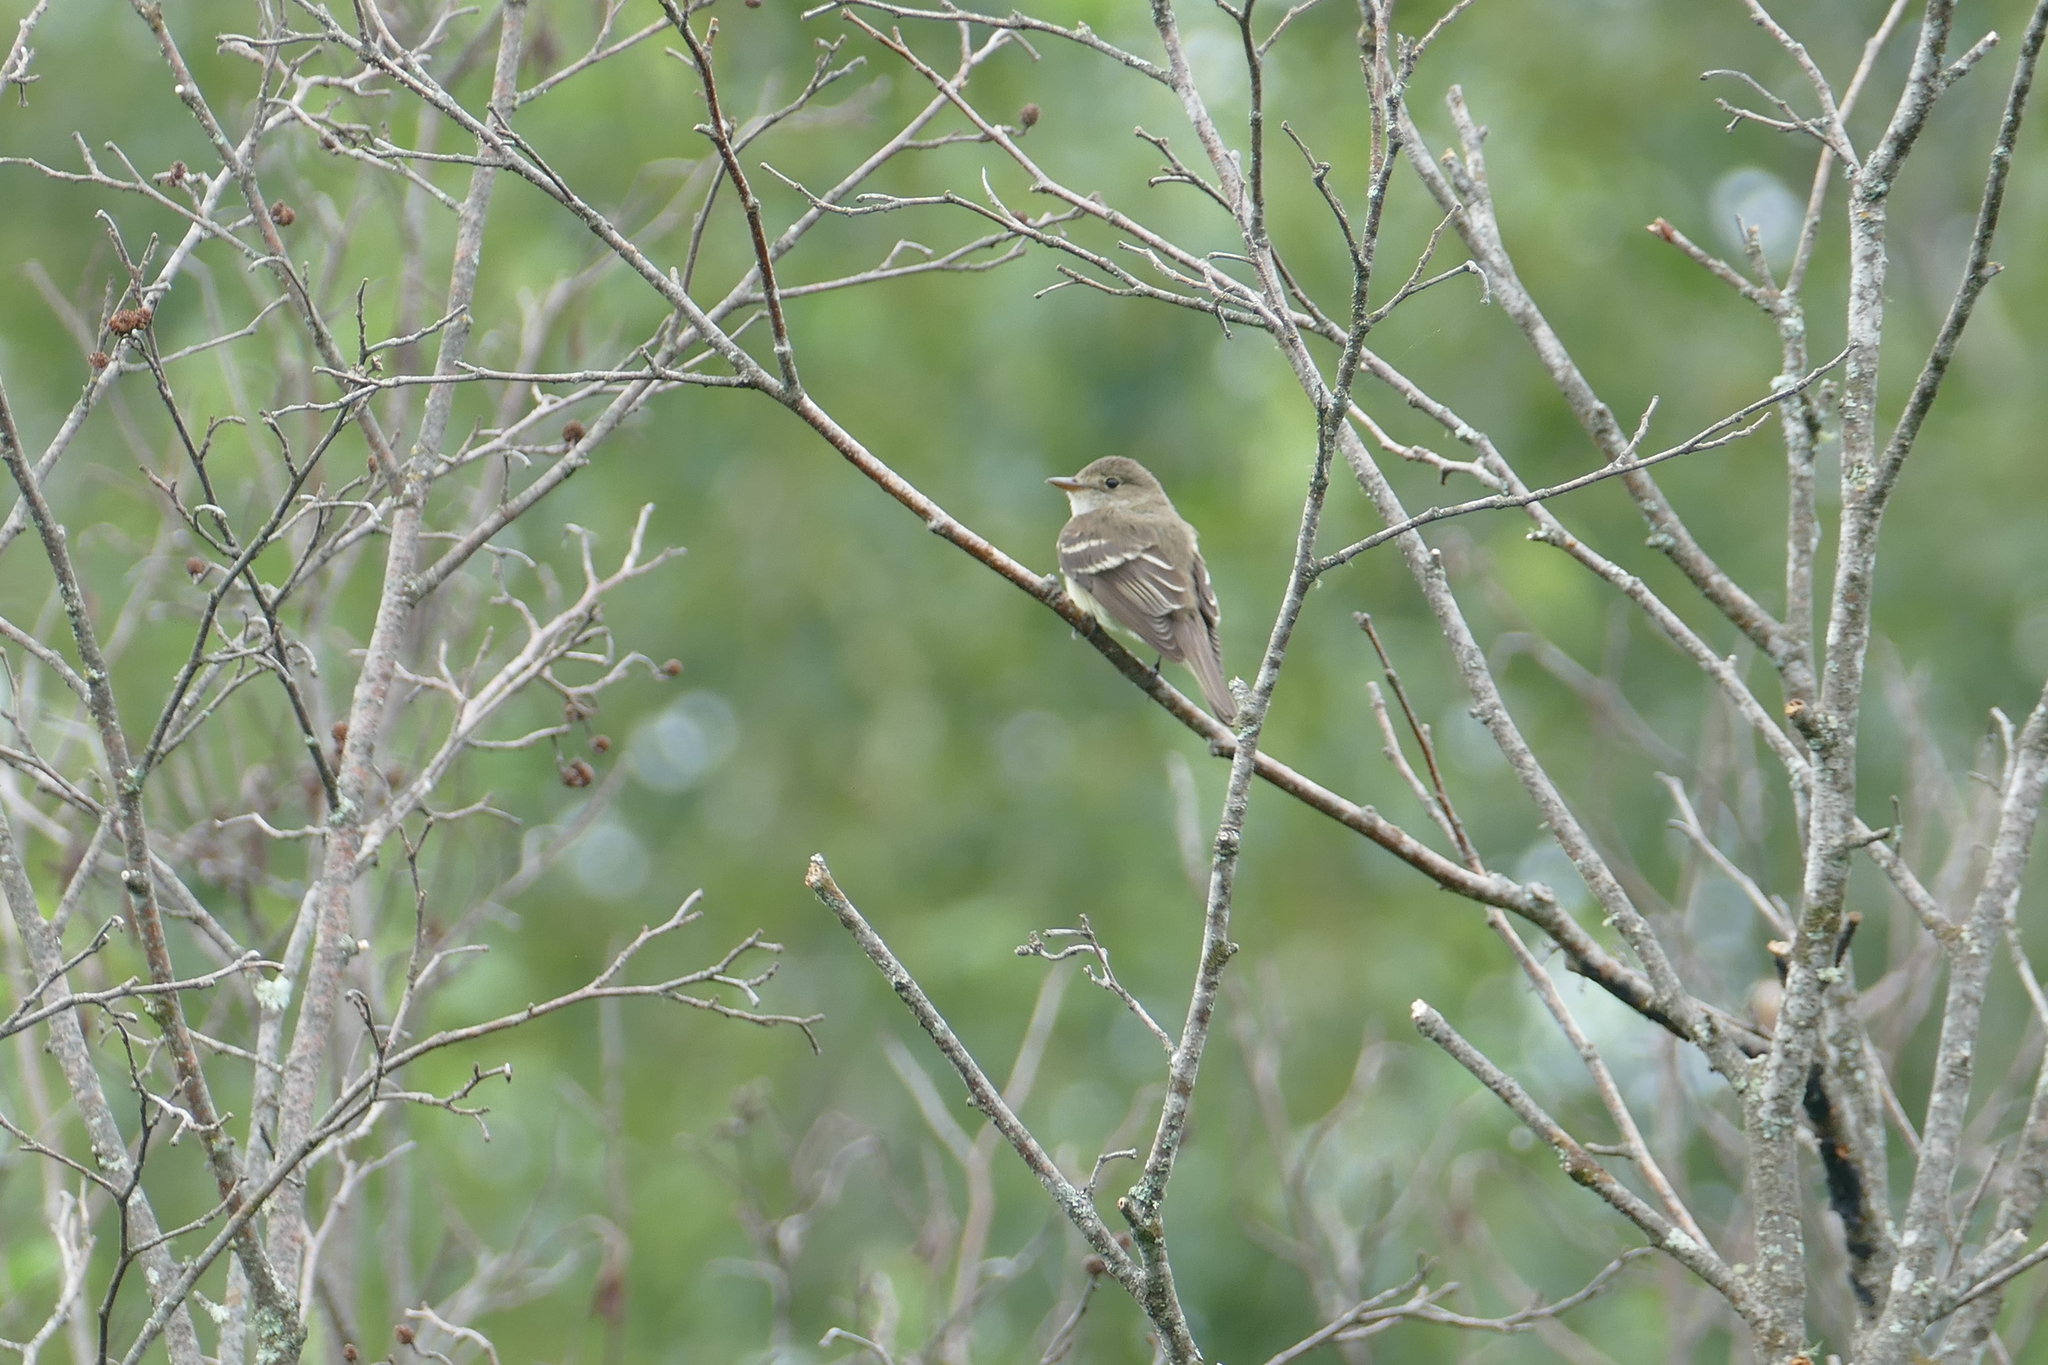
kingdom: Animalia
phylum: Chordata
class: Aves
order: Passeriformes
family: Tyrannidae
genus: Empidonax
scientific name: Empidonax alnorum
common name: Alder flycatcher
